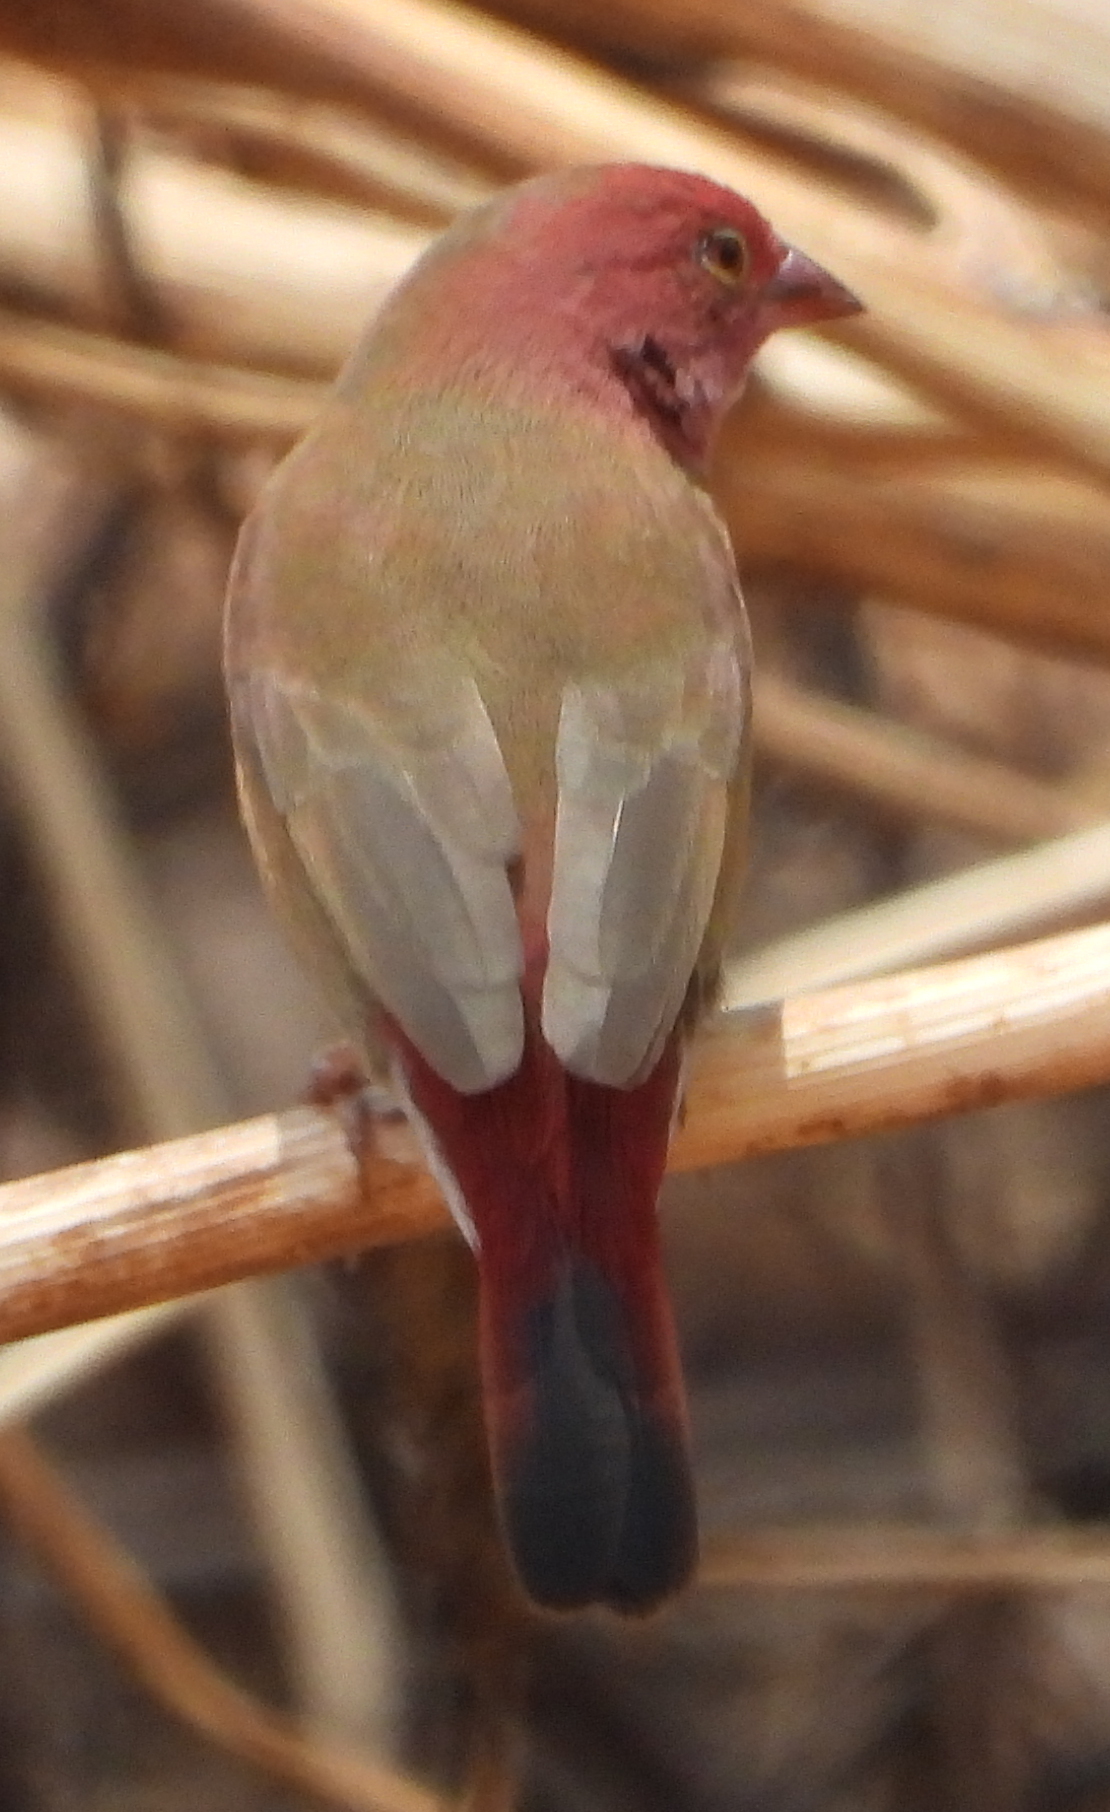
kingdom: Animalia
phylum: Chordata
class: Aves
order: Passeriformes
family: Estrildidae
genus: Lagonosticta
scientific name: Lagonosticta senegala
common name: Red-billed firefinch
